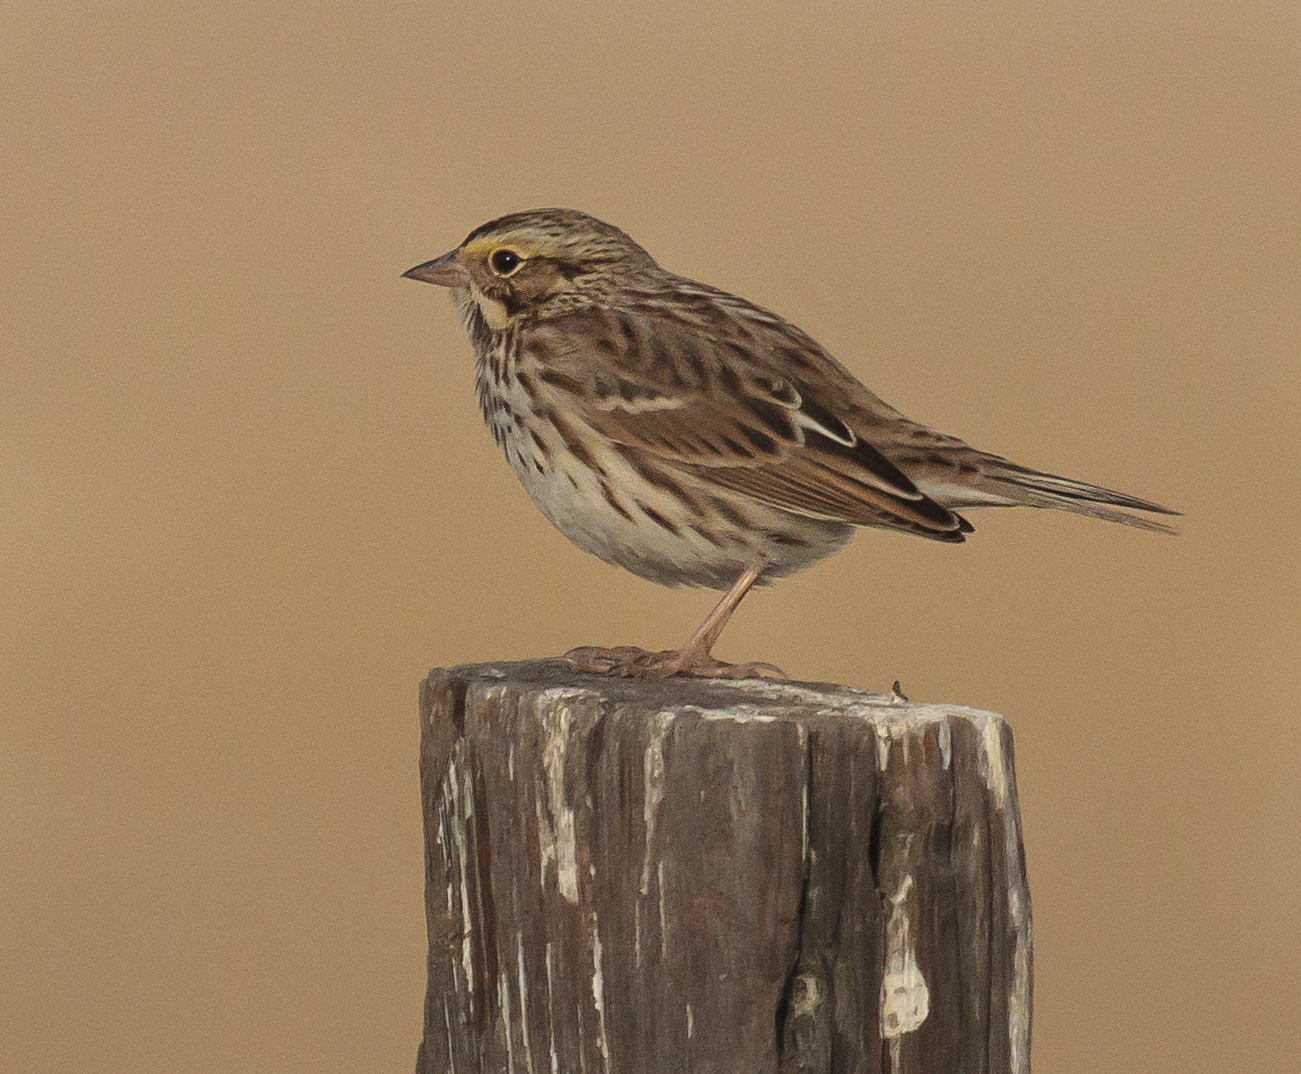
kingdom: Animalia
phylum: Chordata
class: Aves
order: Passeriformes
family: Passerellidae
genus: Passerculus
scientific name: Passerculus sandwichensis
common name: Savannah sparrow
